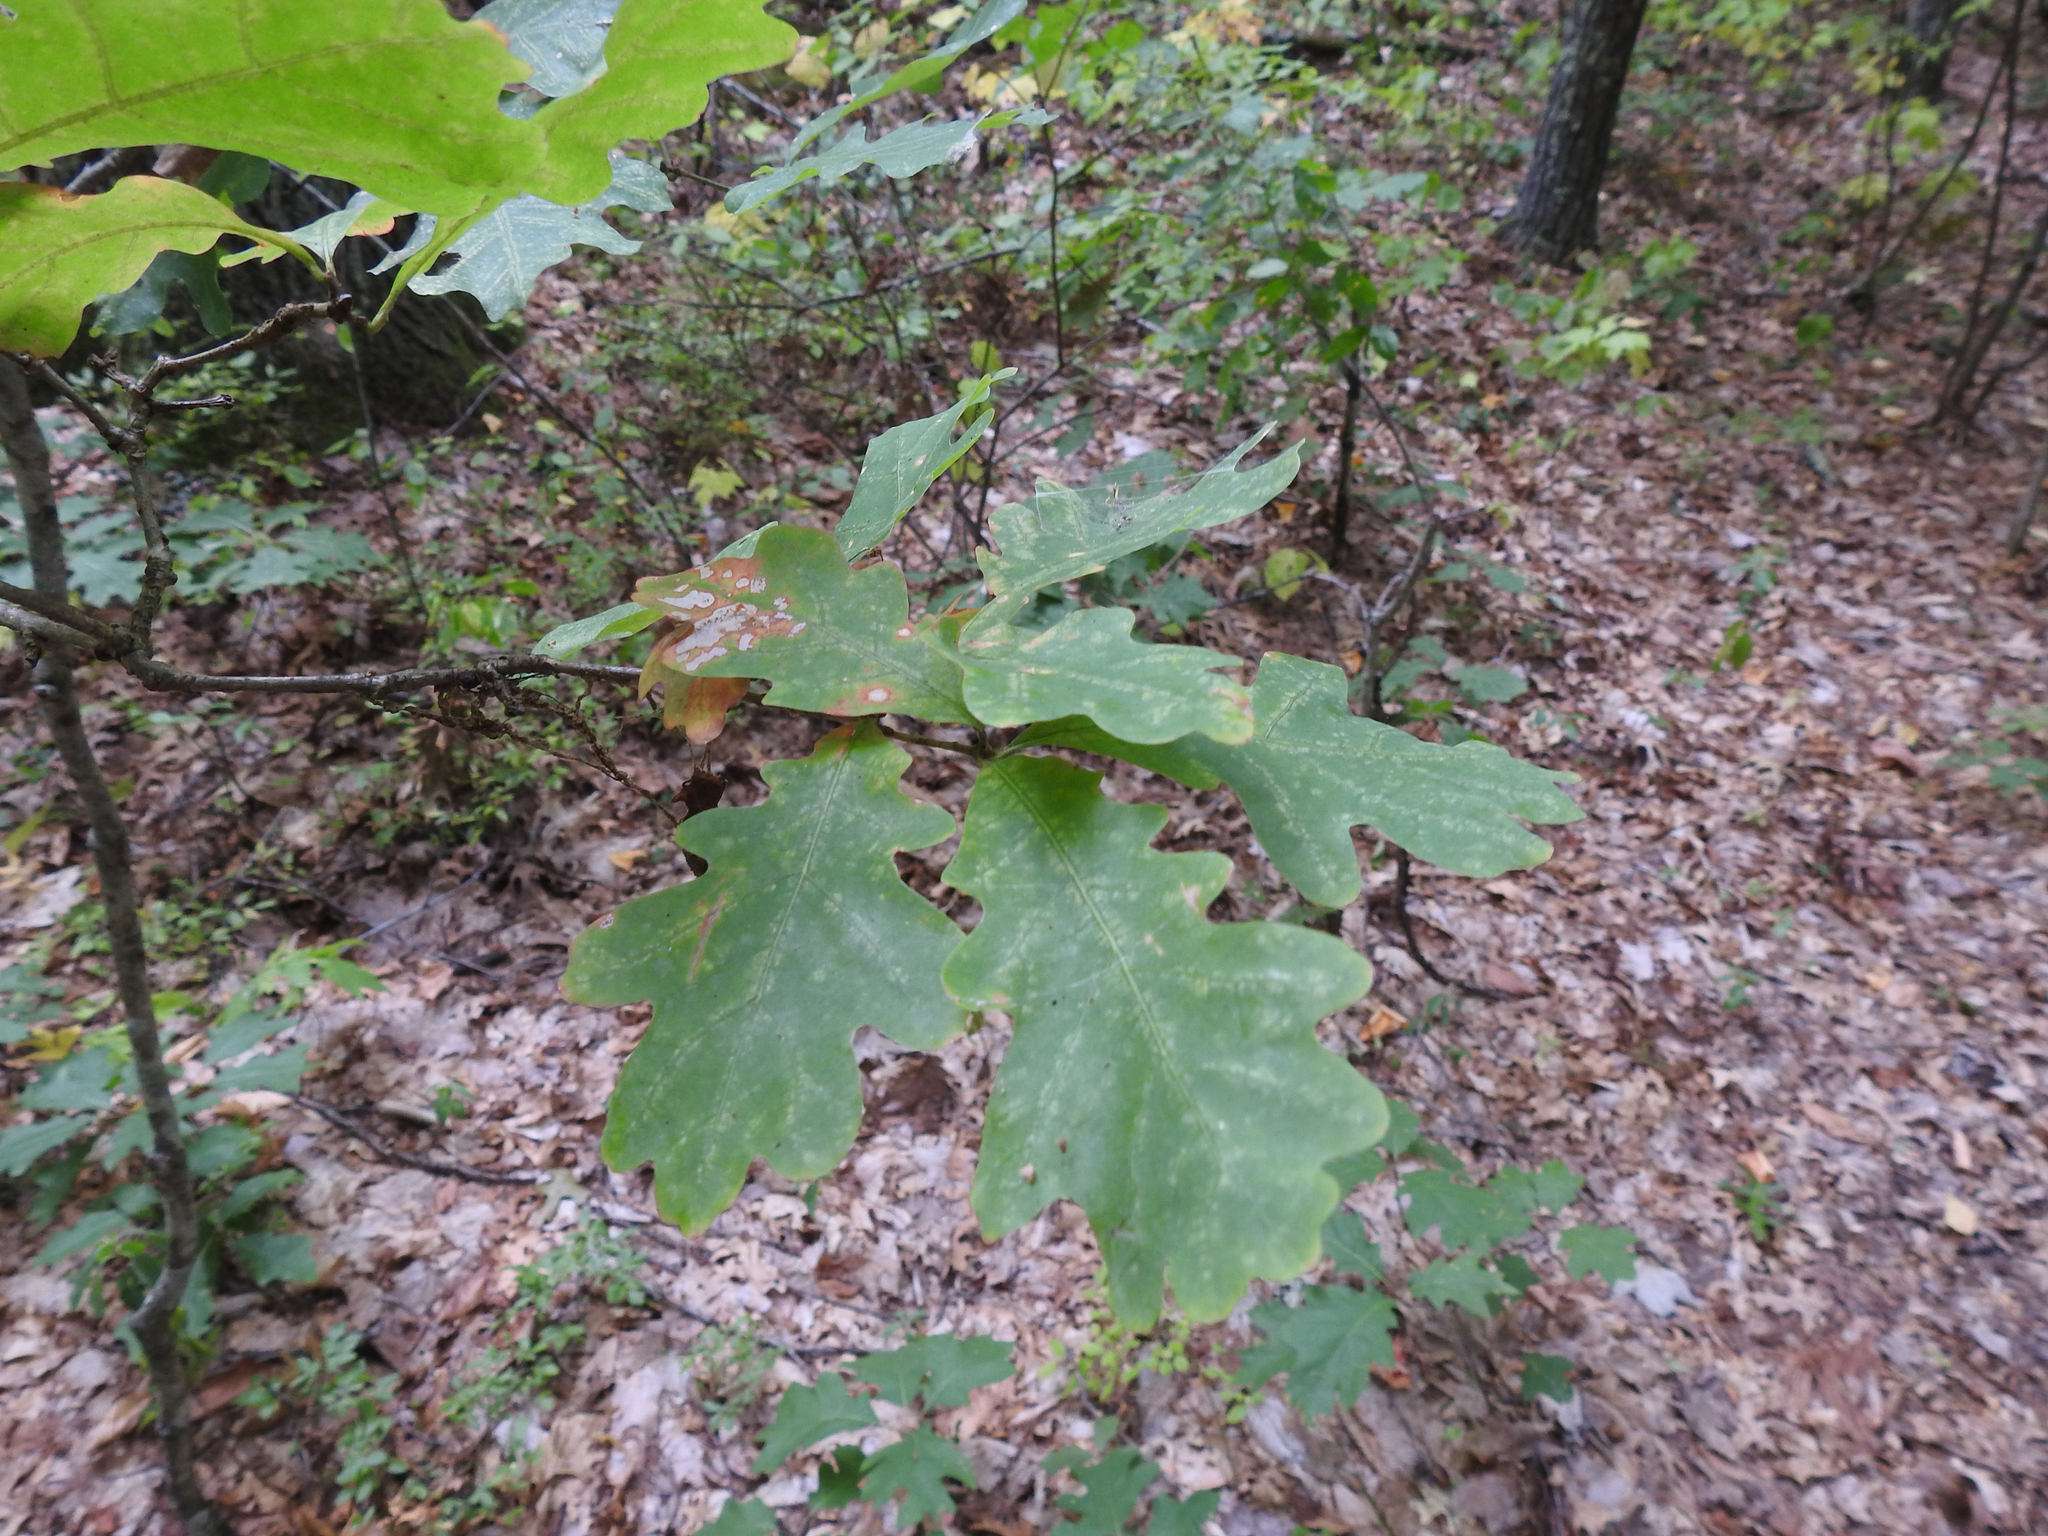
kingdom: Plantae
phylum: Tracheophyta
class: Magnoliopsida
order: Fagales
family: Fagaceae
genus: Quercus
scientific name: Quercus robur
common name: Pedunculate oak
